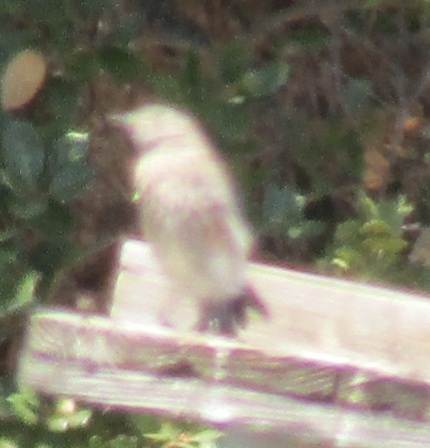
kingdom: Animalia
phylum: Chordata
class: Aves
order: Passeriformes
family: Turdidae
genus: Sialia
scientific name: Sialia mexicana
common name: Western bluebird
